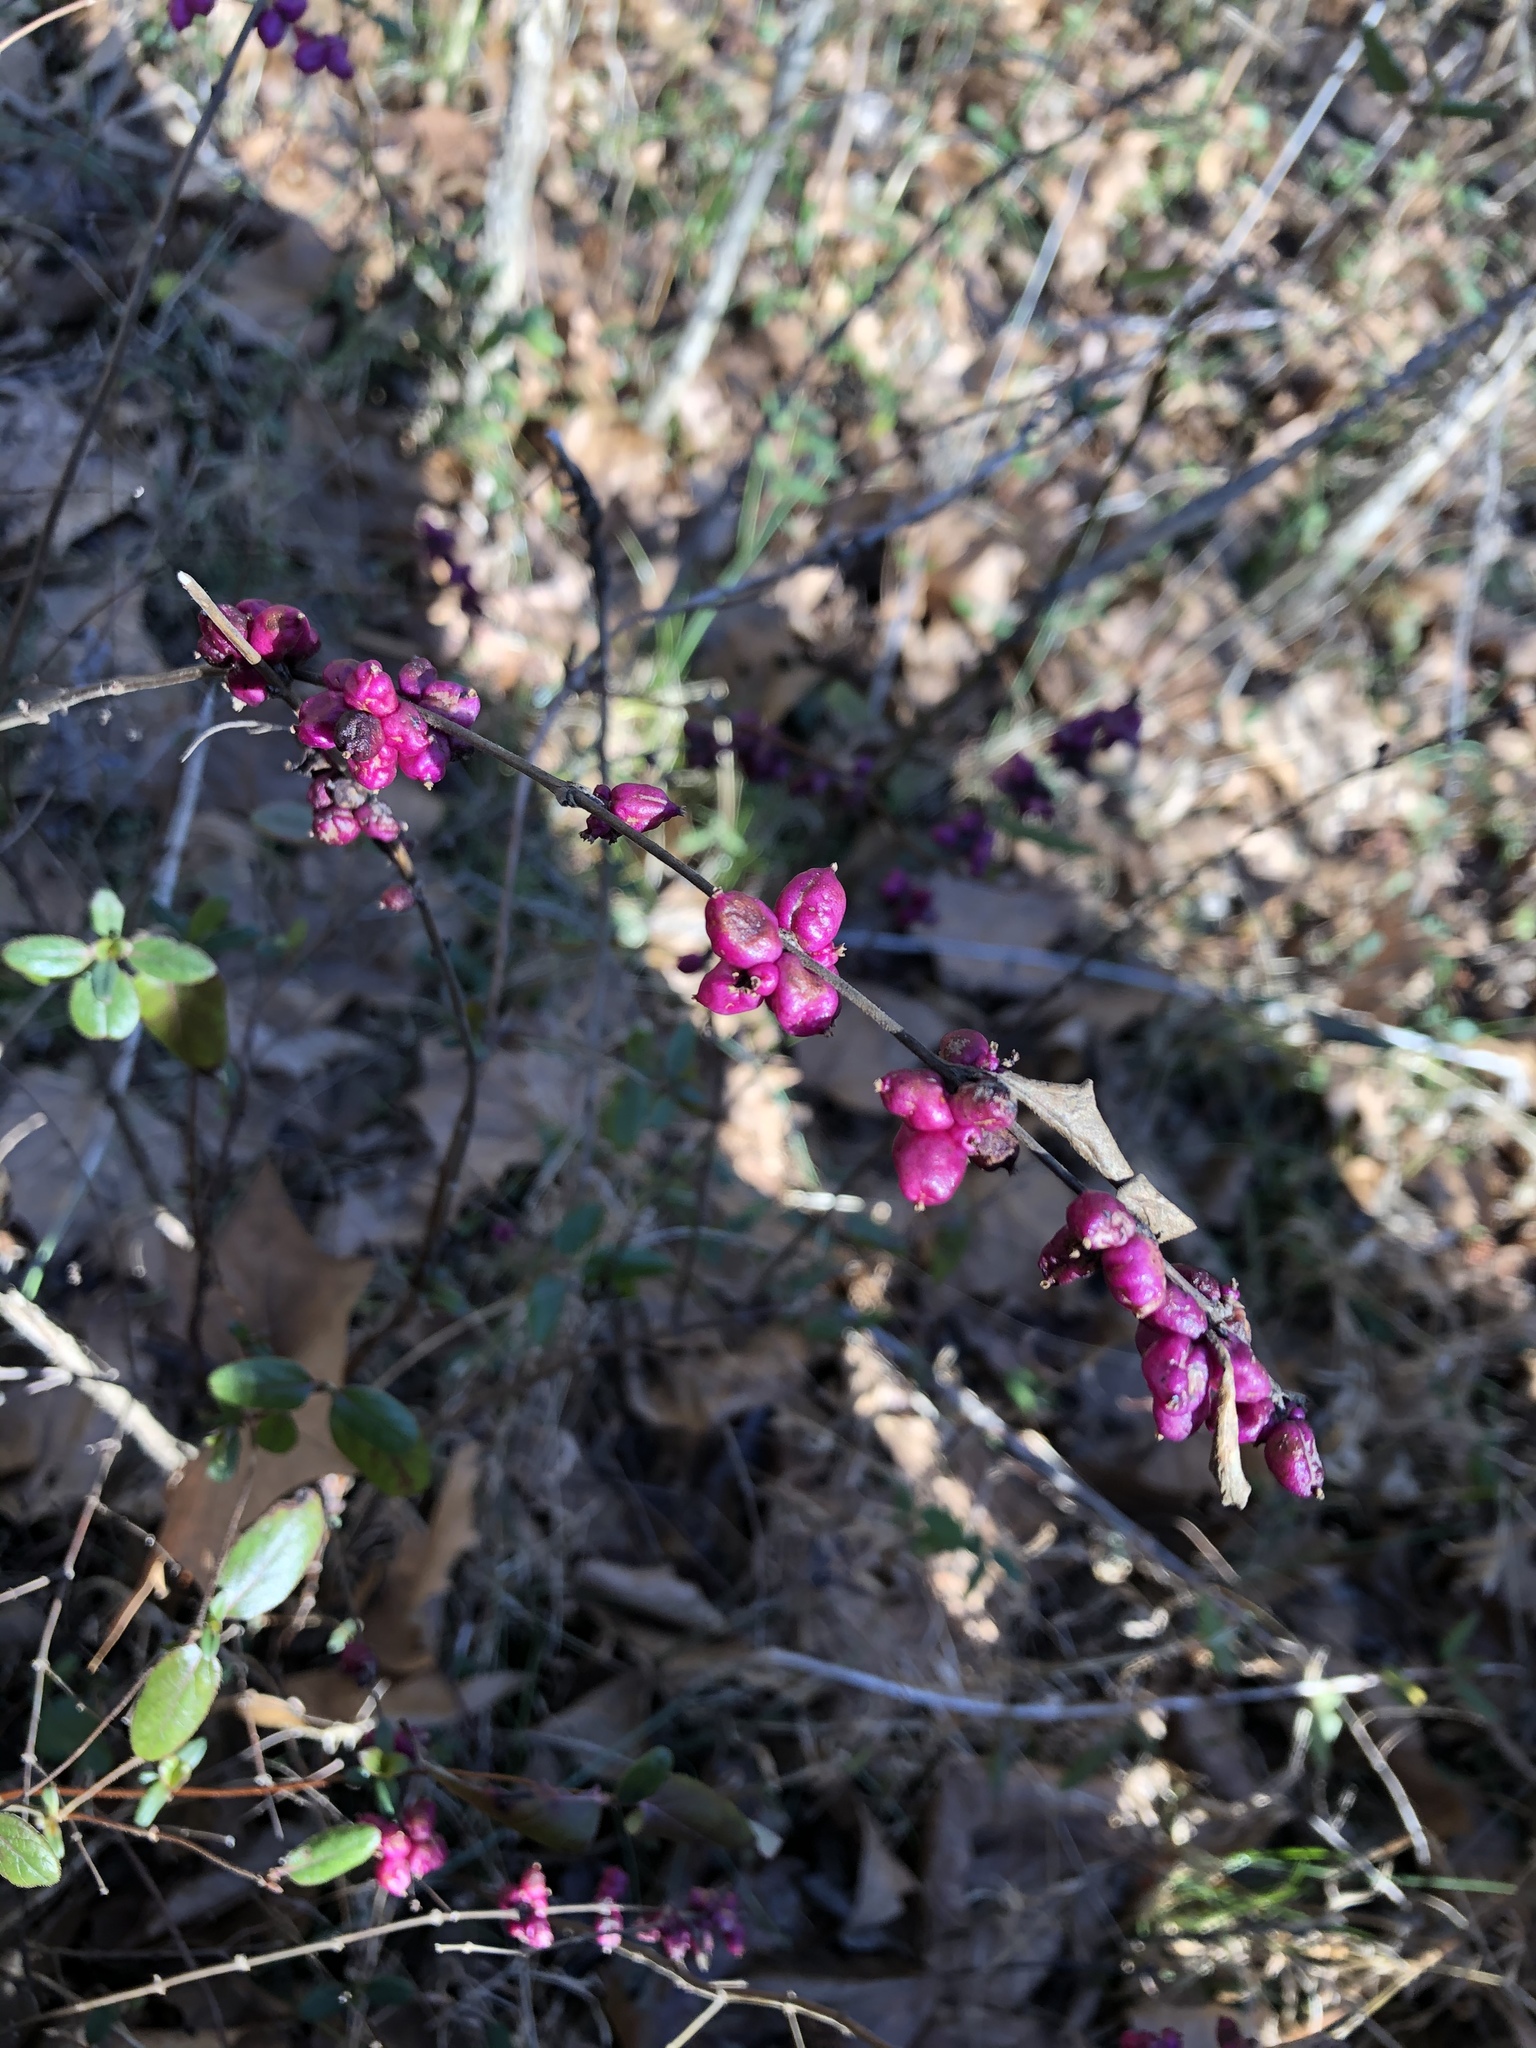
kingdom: Plantae
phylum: Tracheophyta
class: Magnoliopsida
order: Dipsacales
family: Caprifoliaceae
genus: Symphoricarpos
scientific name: Symphoricarpos orbiculatus
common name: Coralberry
